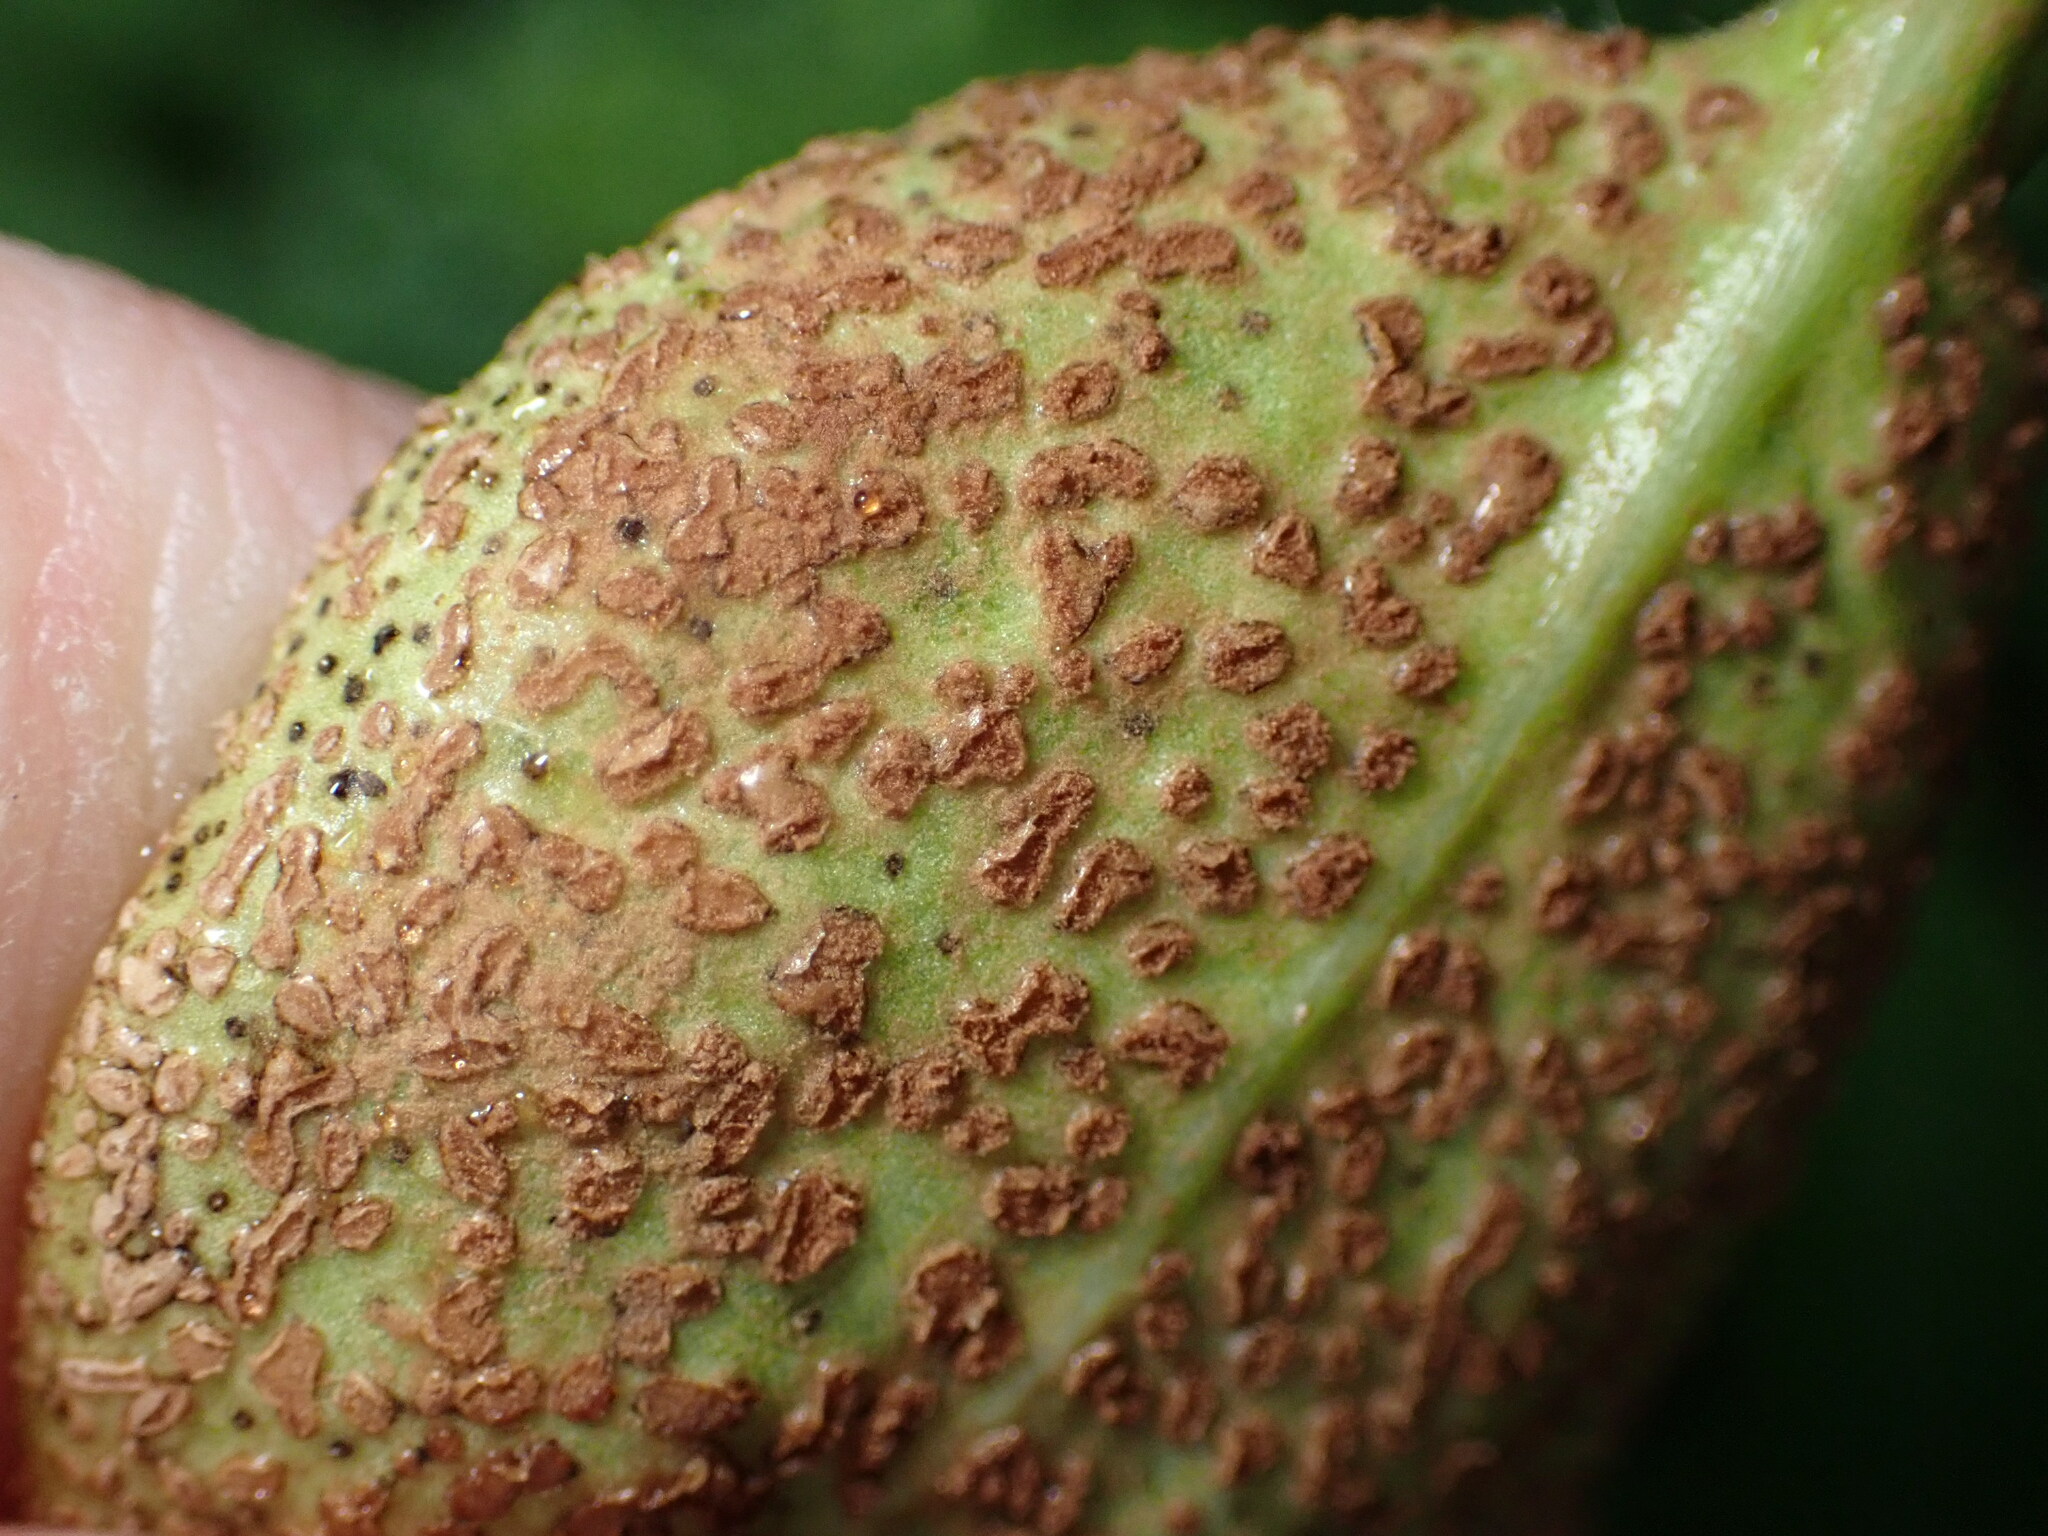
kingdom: Fungi
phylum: Basidiomycota
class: Pucciniomycetes
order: Pucciniales
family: Pucciniaceae
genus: Puccinia
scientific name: Puccinia vincae
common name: Periwinkle rust
